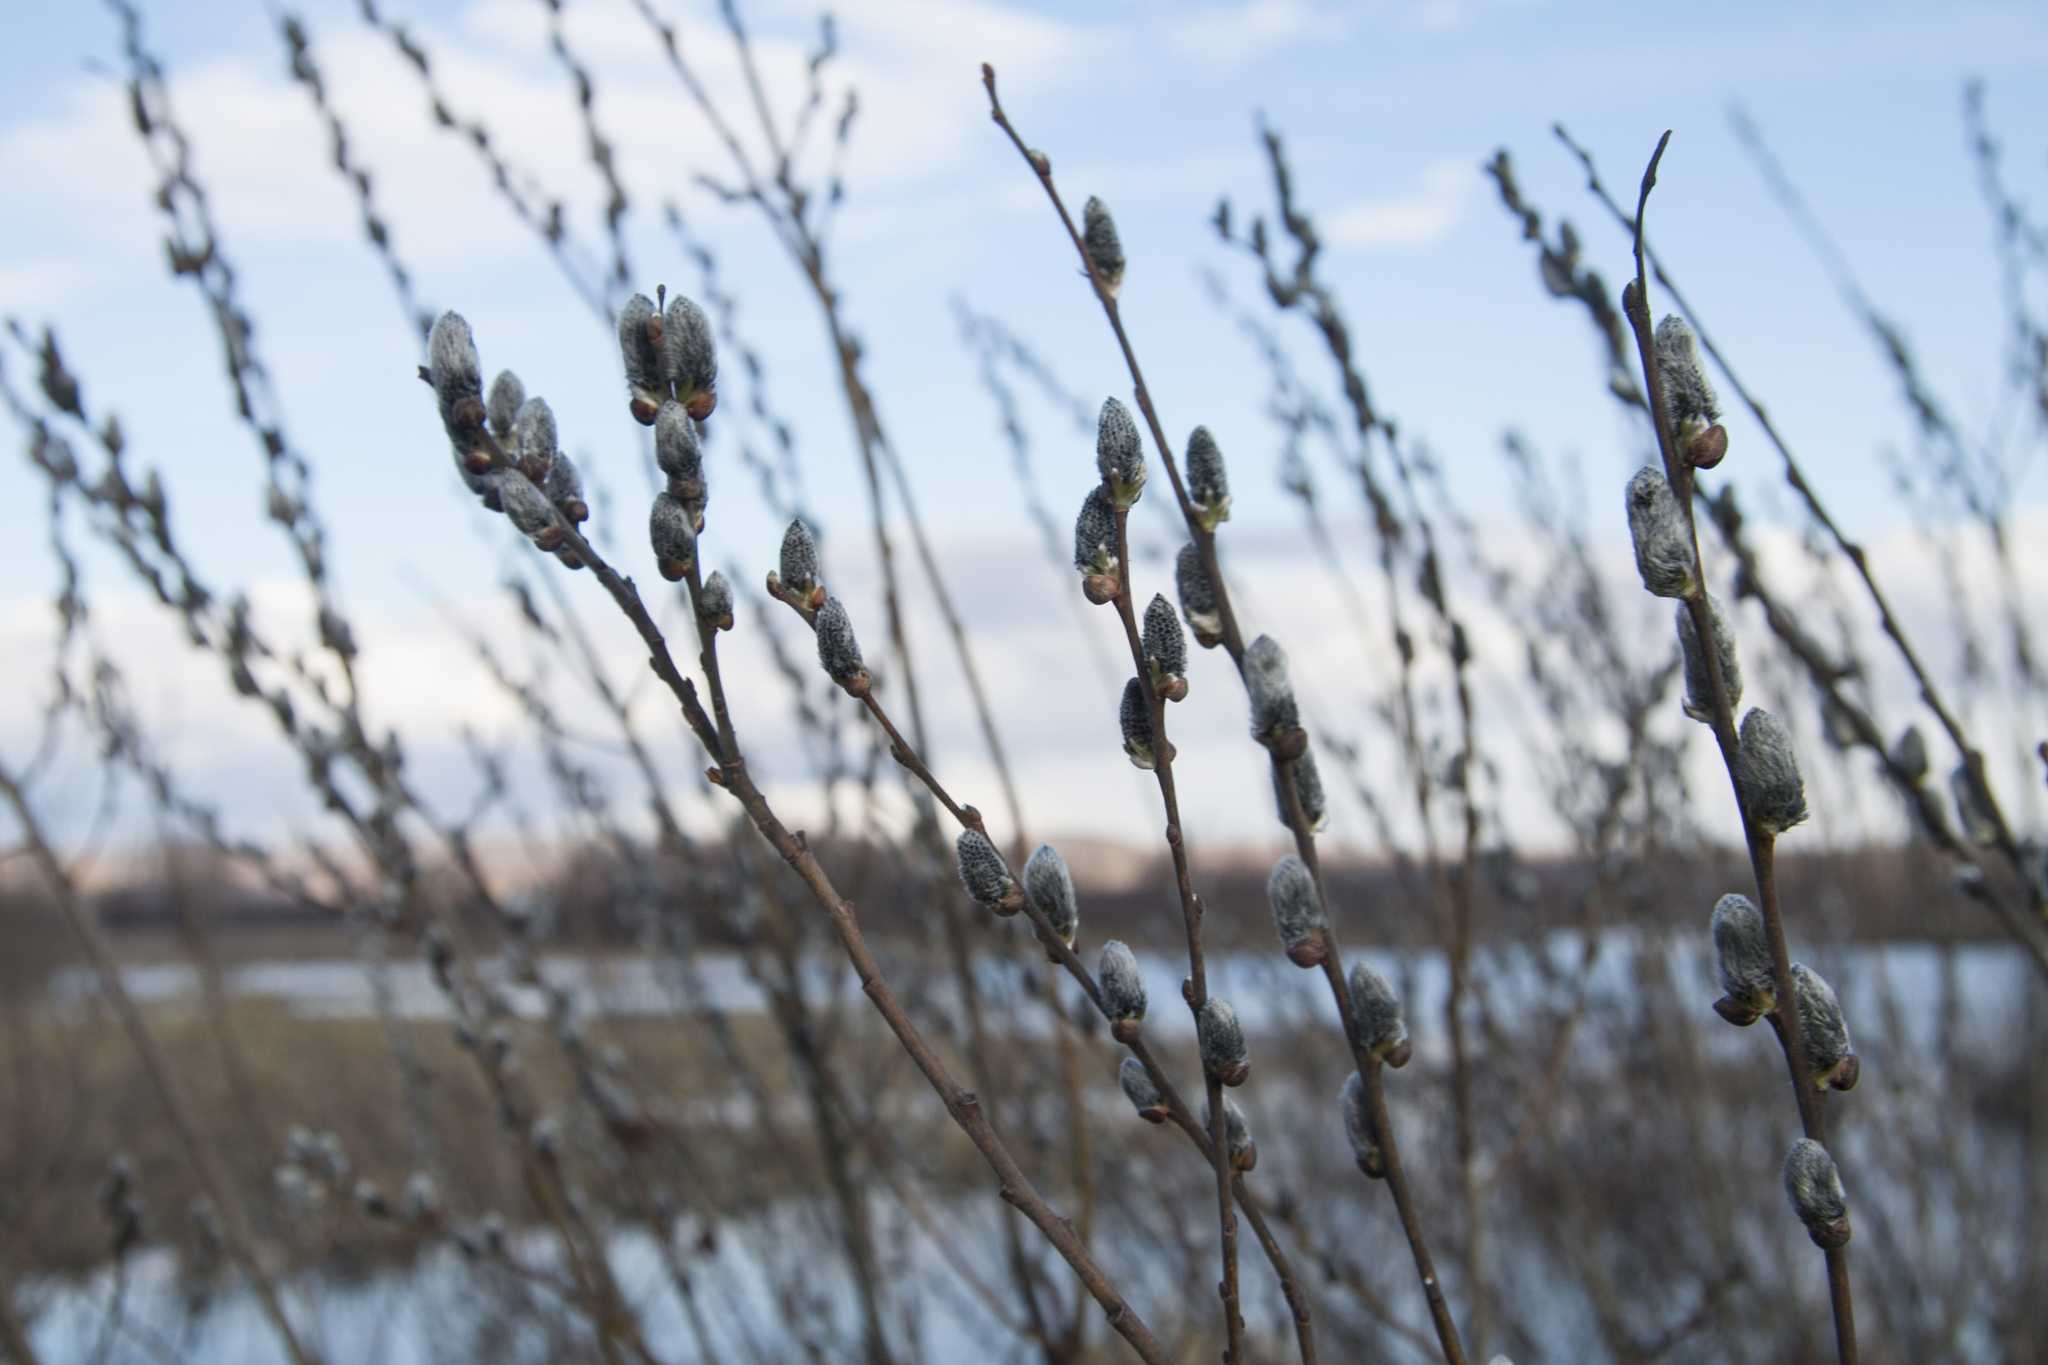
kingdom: Plantae
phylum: Tracheophyta
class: Magnoliopsida
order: Malpighiales
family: Salicaceae
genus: Salix
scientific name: Salix cinerea
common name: Common sallow
